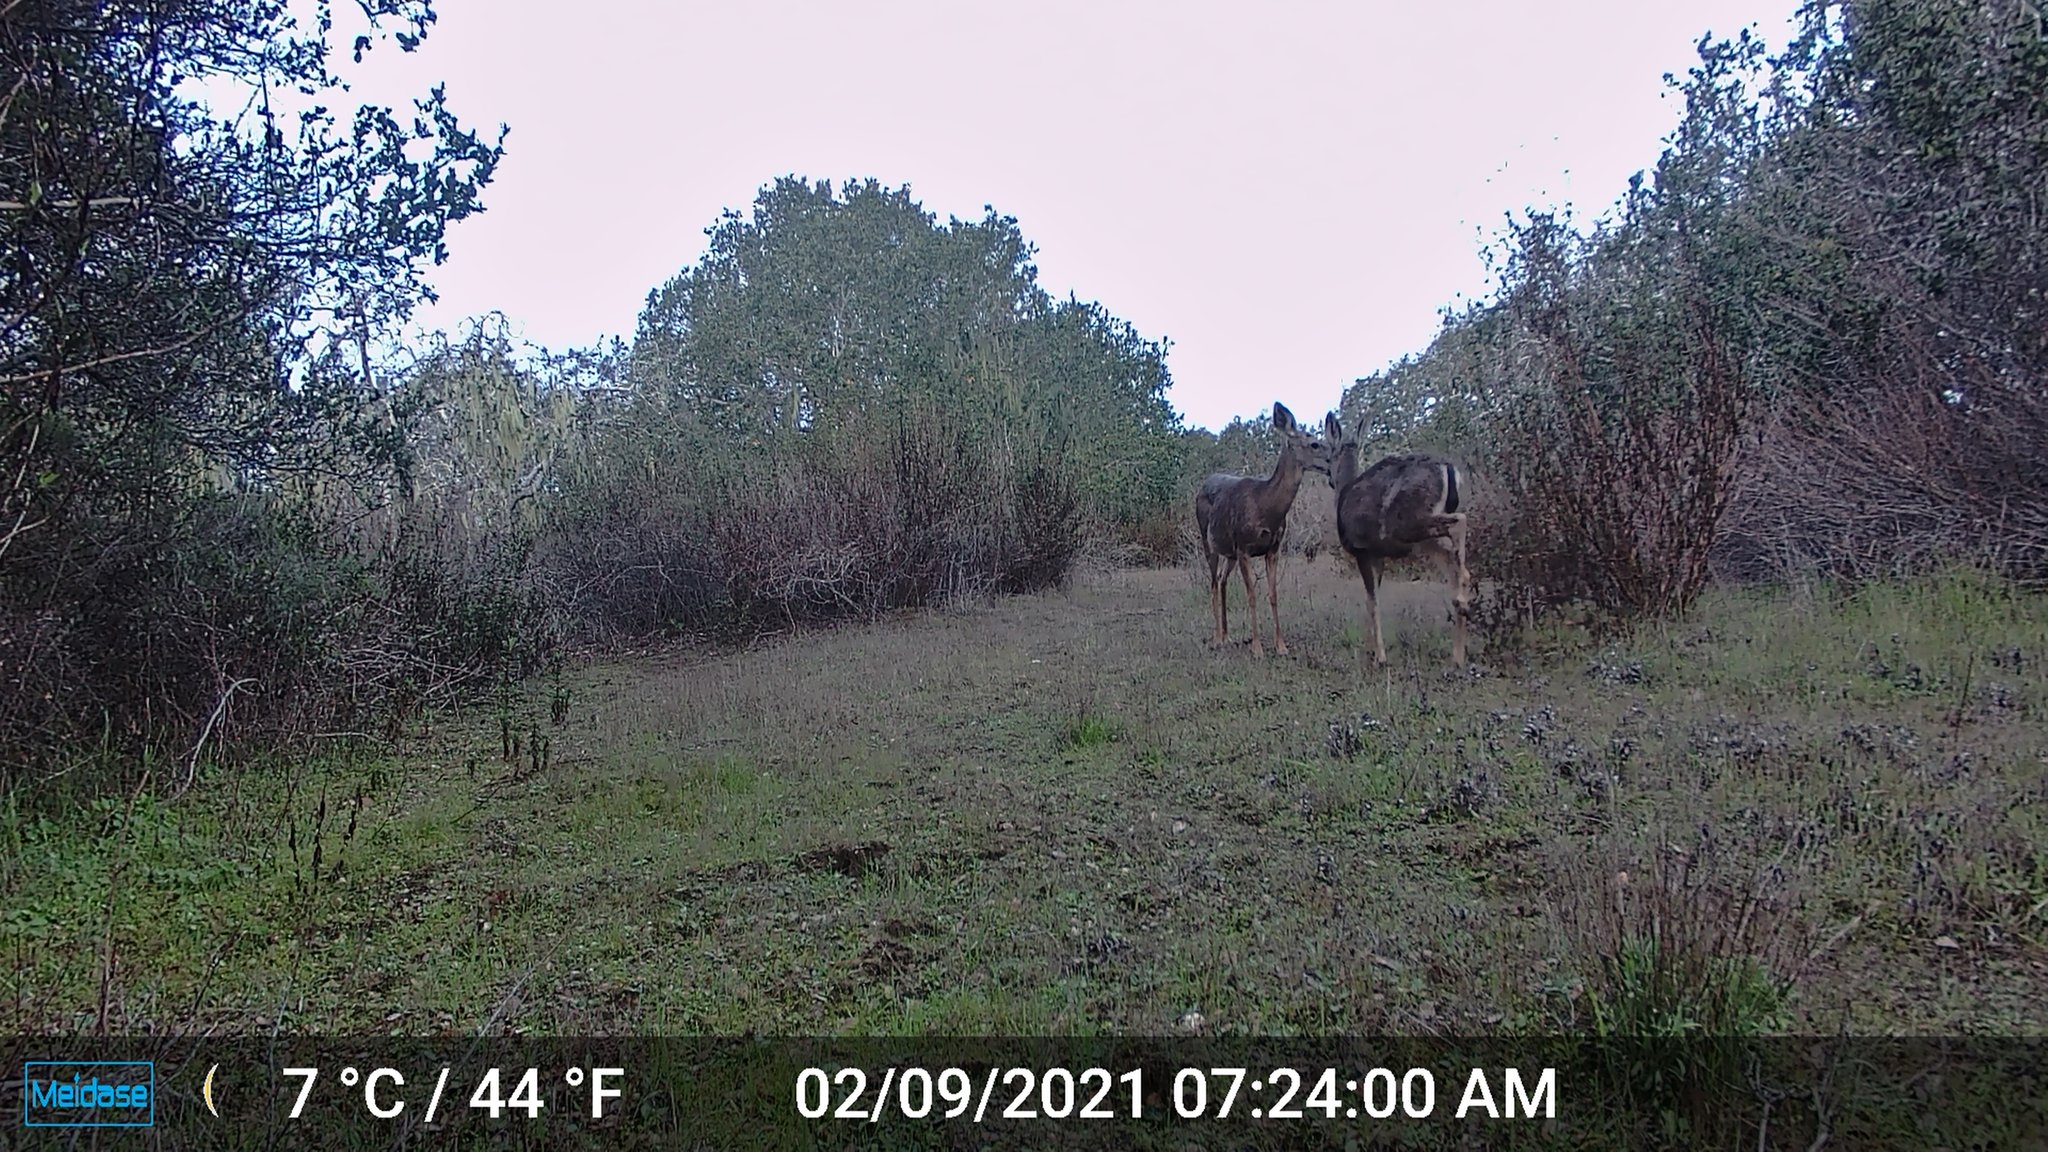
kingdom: Animalia
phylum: Chordata
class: Mammalia
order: Artiodactyla
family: Cervidae
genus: Odocoileus
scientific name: Odocoileus hemionus
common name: Mule deer
